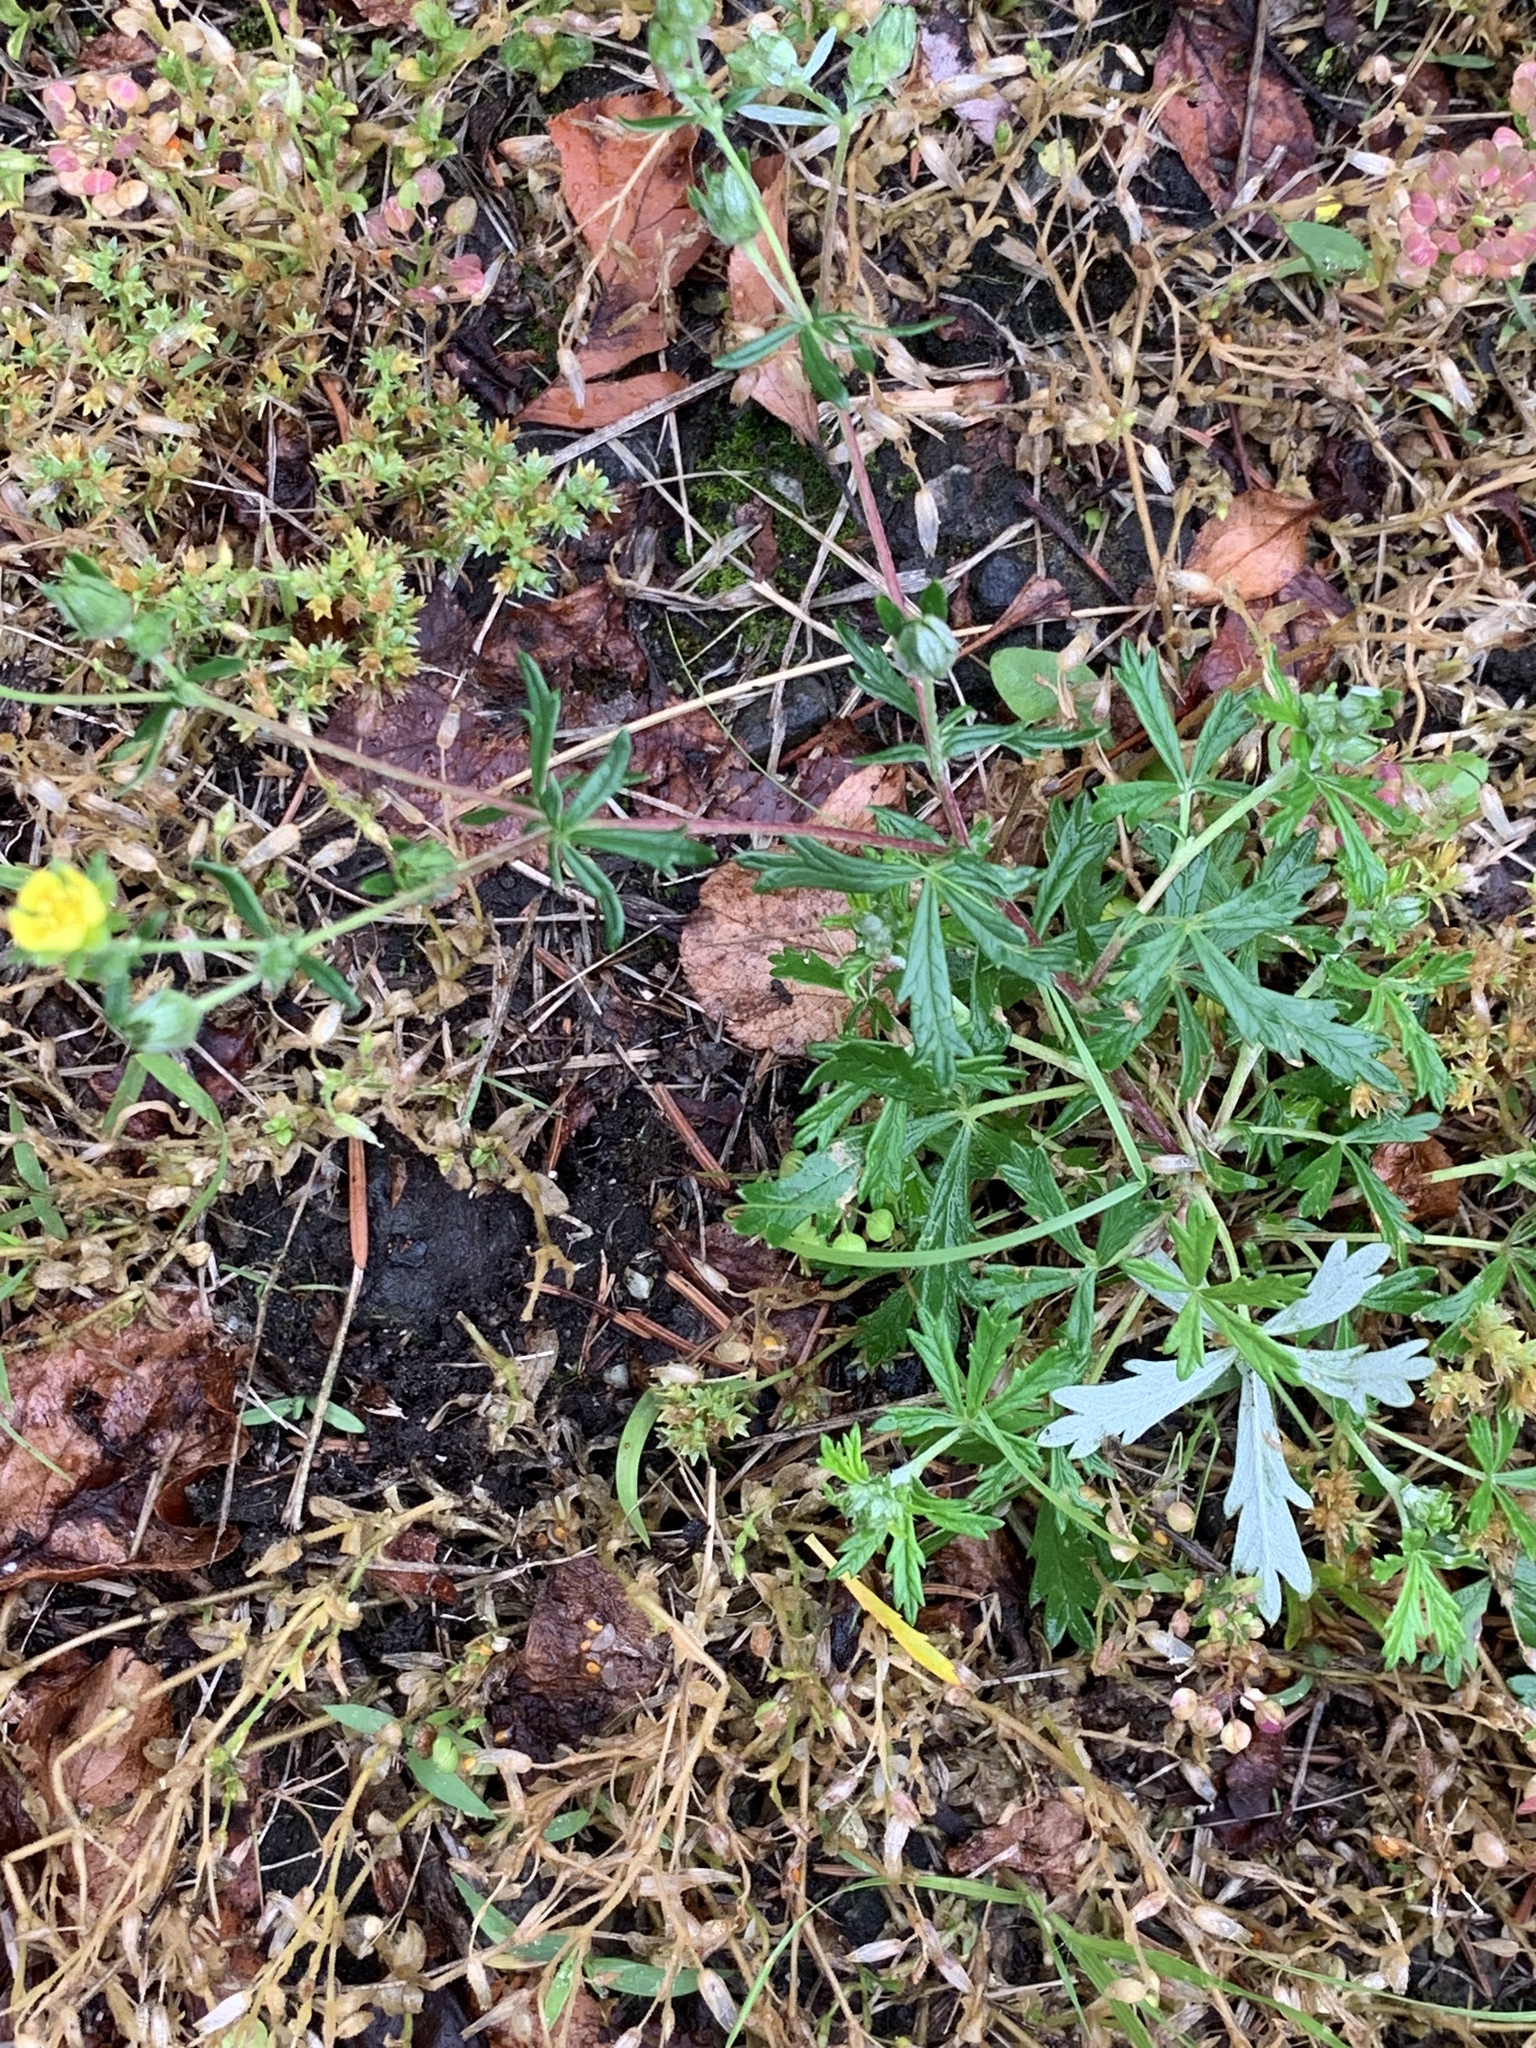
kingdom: Plantae
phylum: Tracheophyta
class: Magnoliopsida
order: Rosales
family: Rosaceae
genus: Potentilla
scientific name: Potentilla argentea
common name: Hoary cinquefoil
